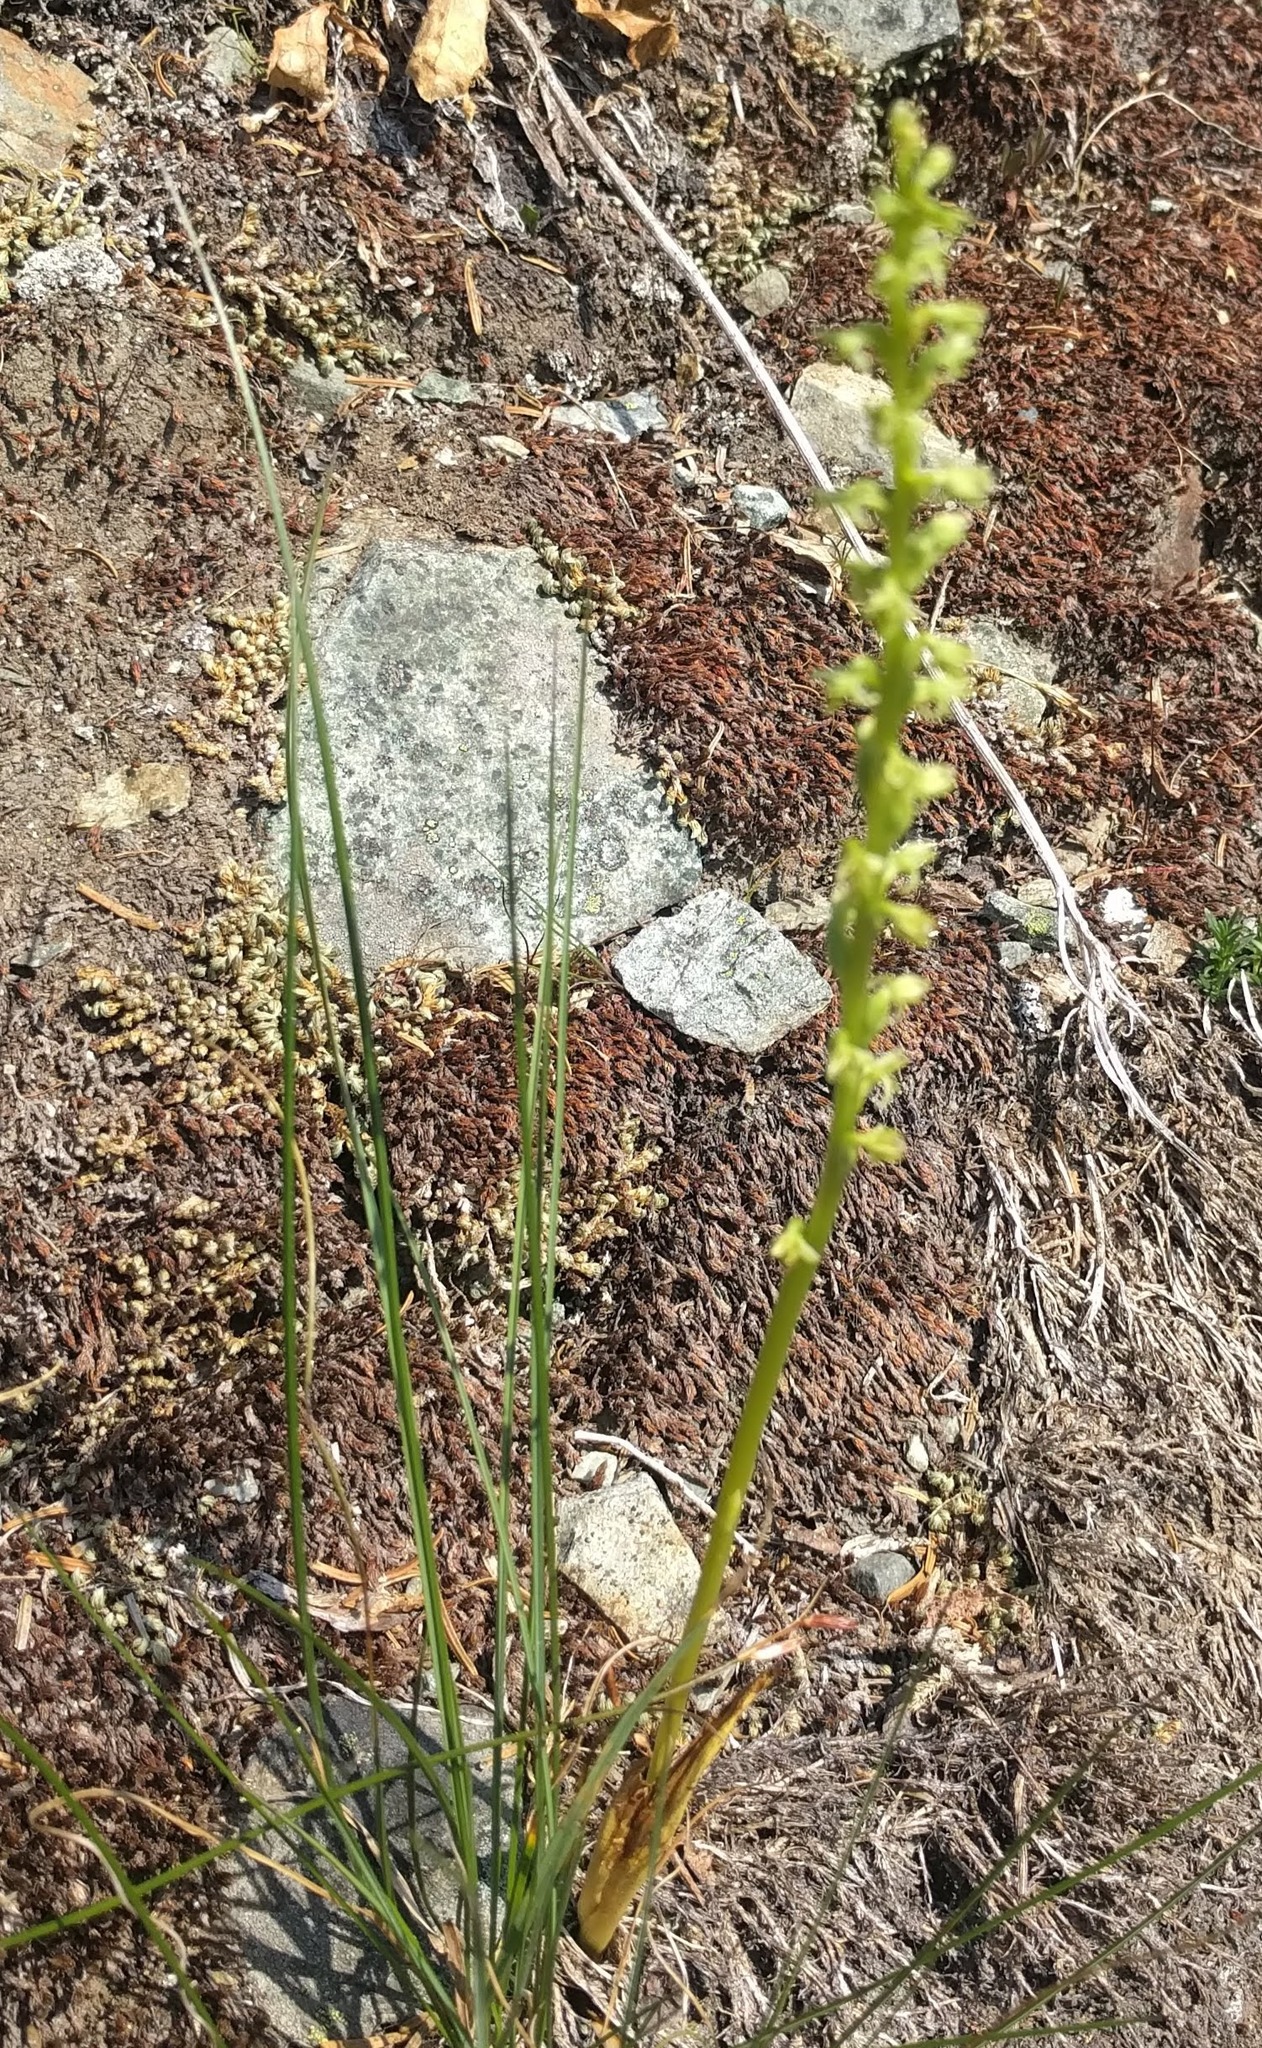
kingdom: Plantae
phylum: Tracheophyta
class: Liliopsida
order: Asparagales
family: Orchidaceae
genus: Platanthera
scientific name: Platanthera unalascensis
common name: Alaska bog orchid
